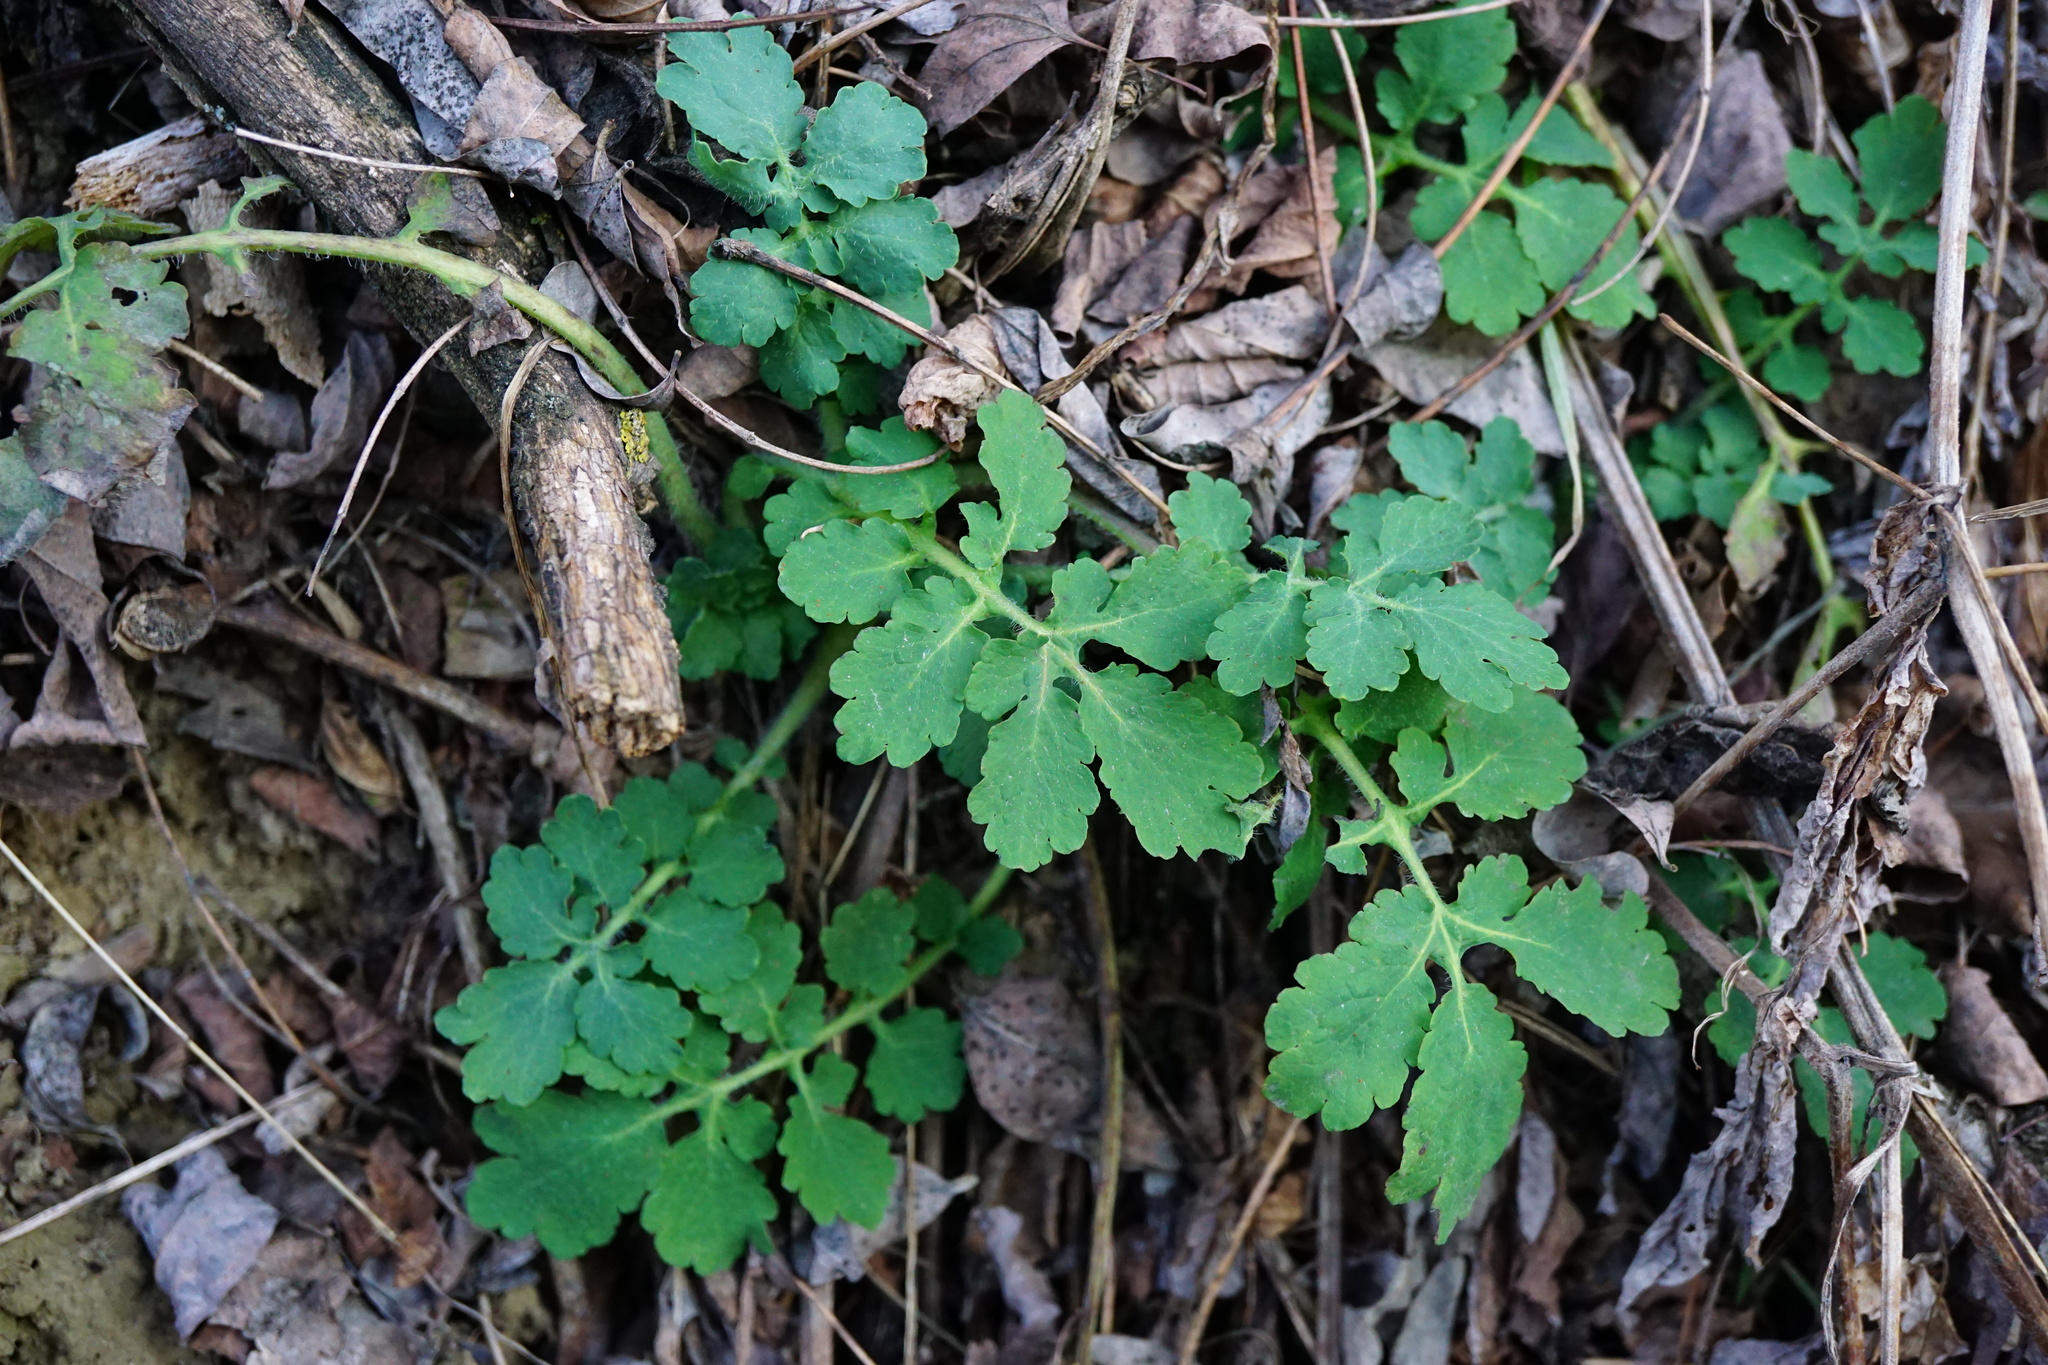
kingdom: Plantae
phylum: Tracheophyta
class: Magnoliopsida
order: Ranunculales
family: Papaveraceae
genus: Chelidonium
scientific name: Chelidonium majus
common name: Greater celandine
